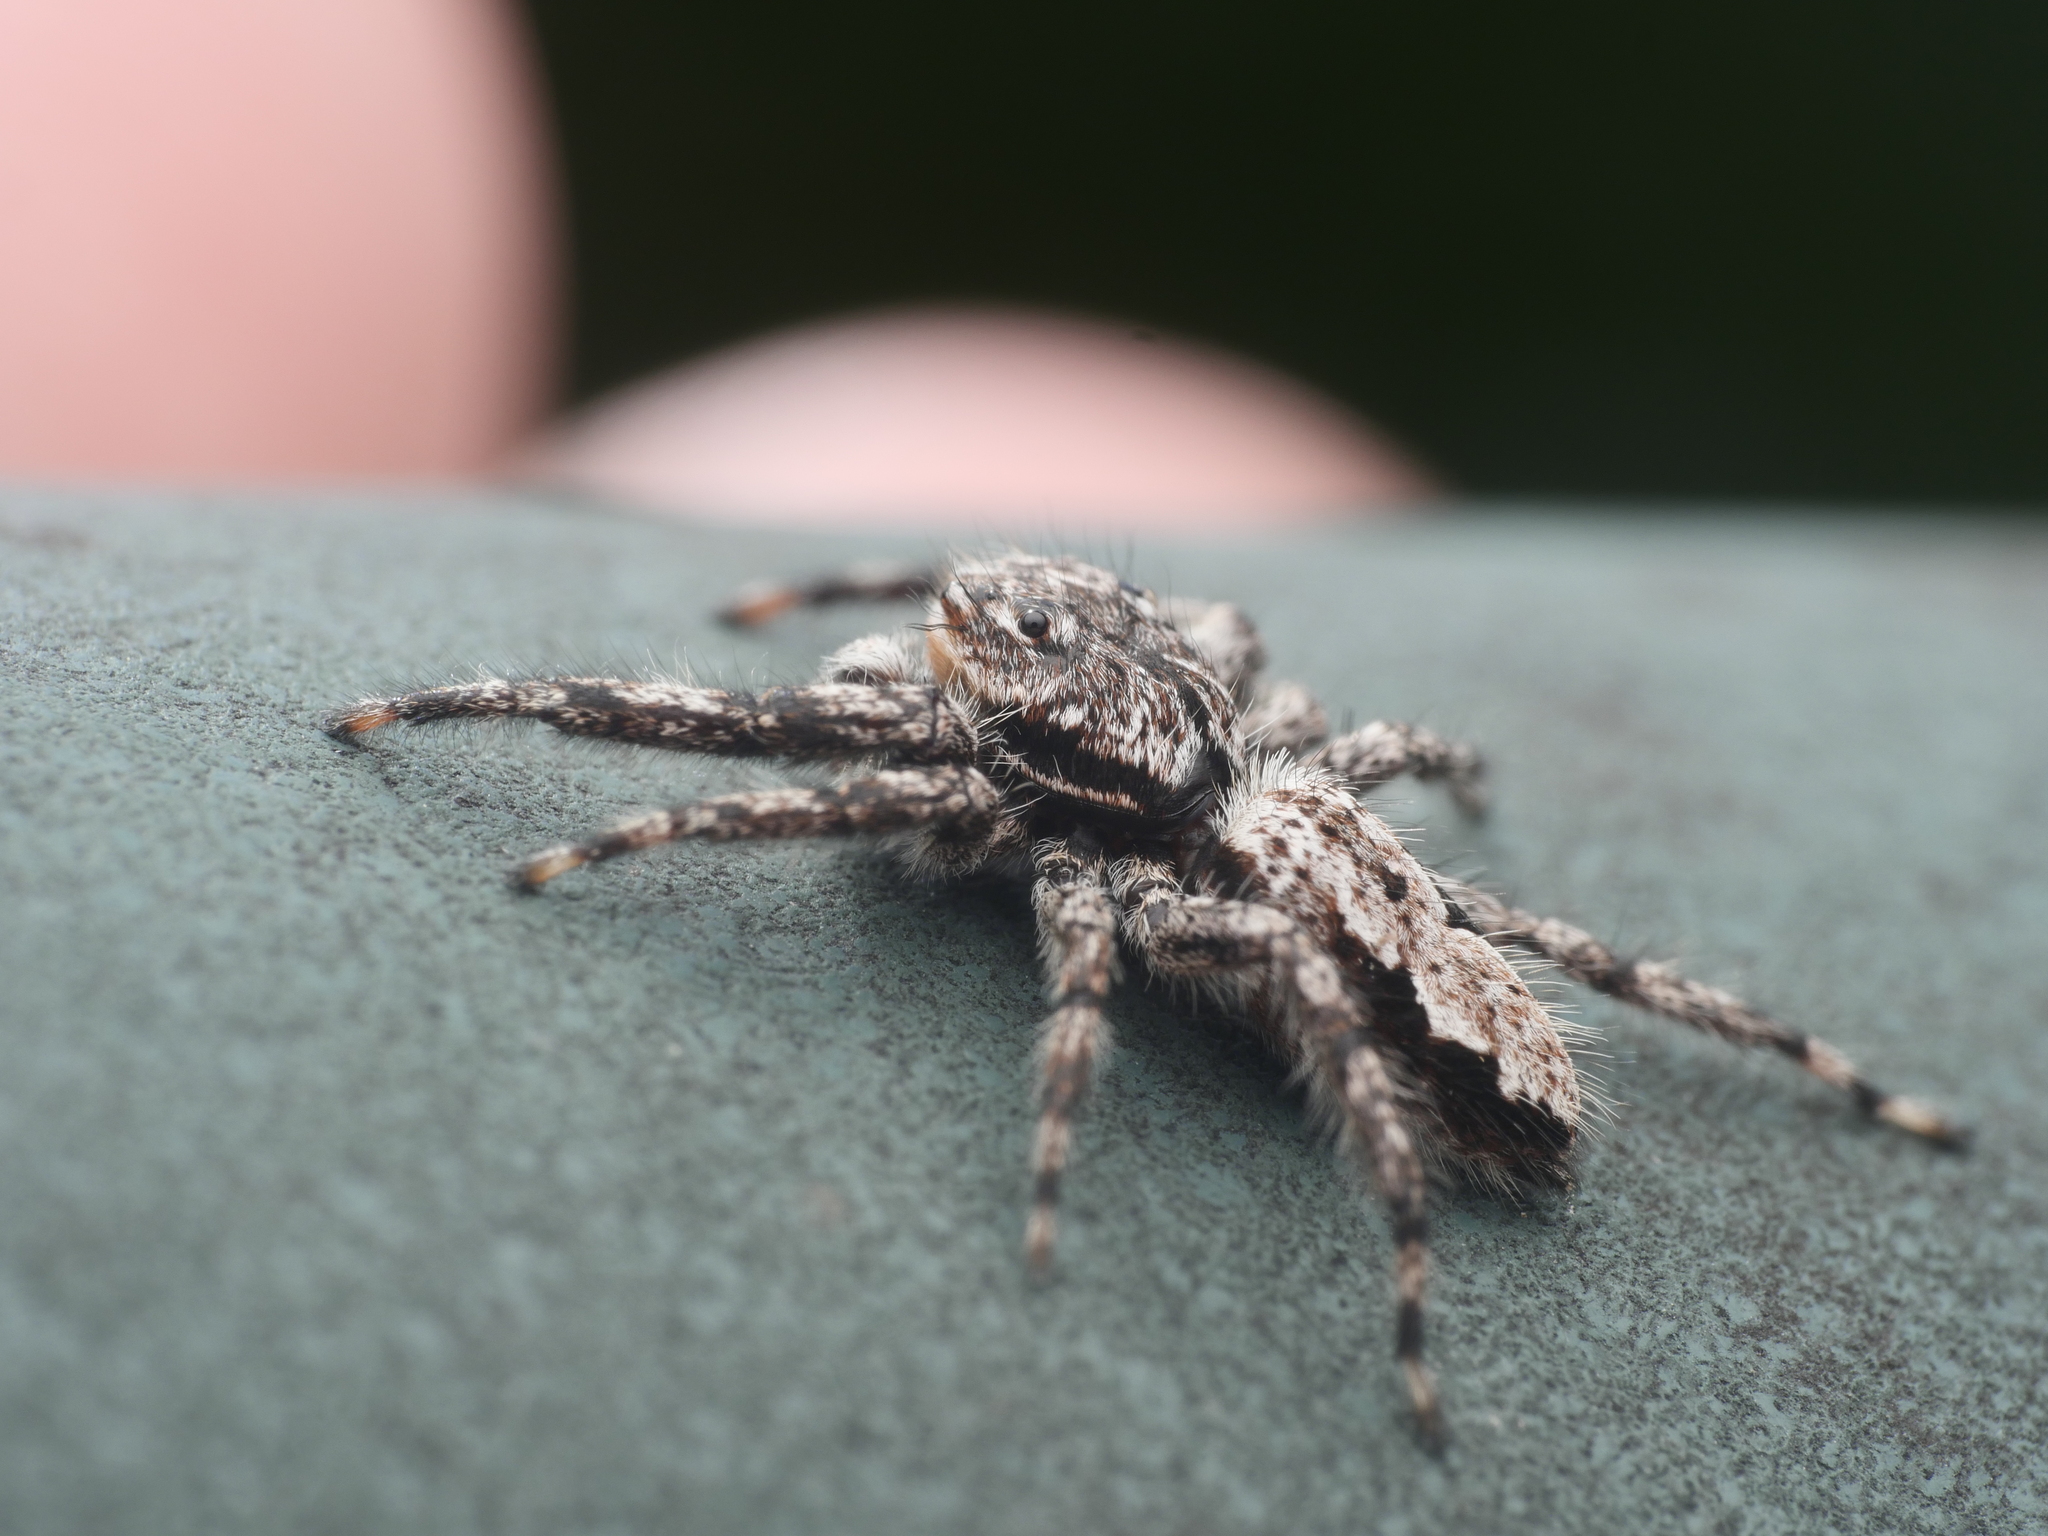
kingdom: Animalia
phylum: Arthropoda
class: Arachnida
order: Araneae
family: Salticidae
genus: Platycryptus
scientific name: Platycryptus undatus
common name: Tan jumping spider
